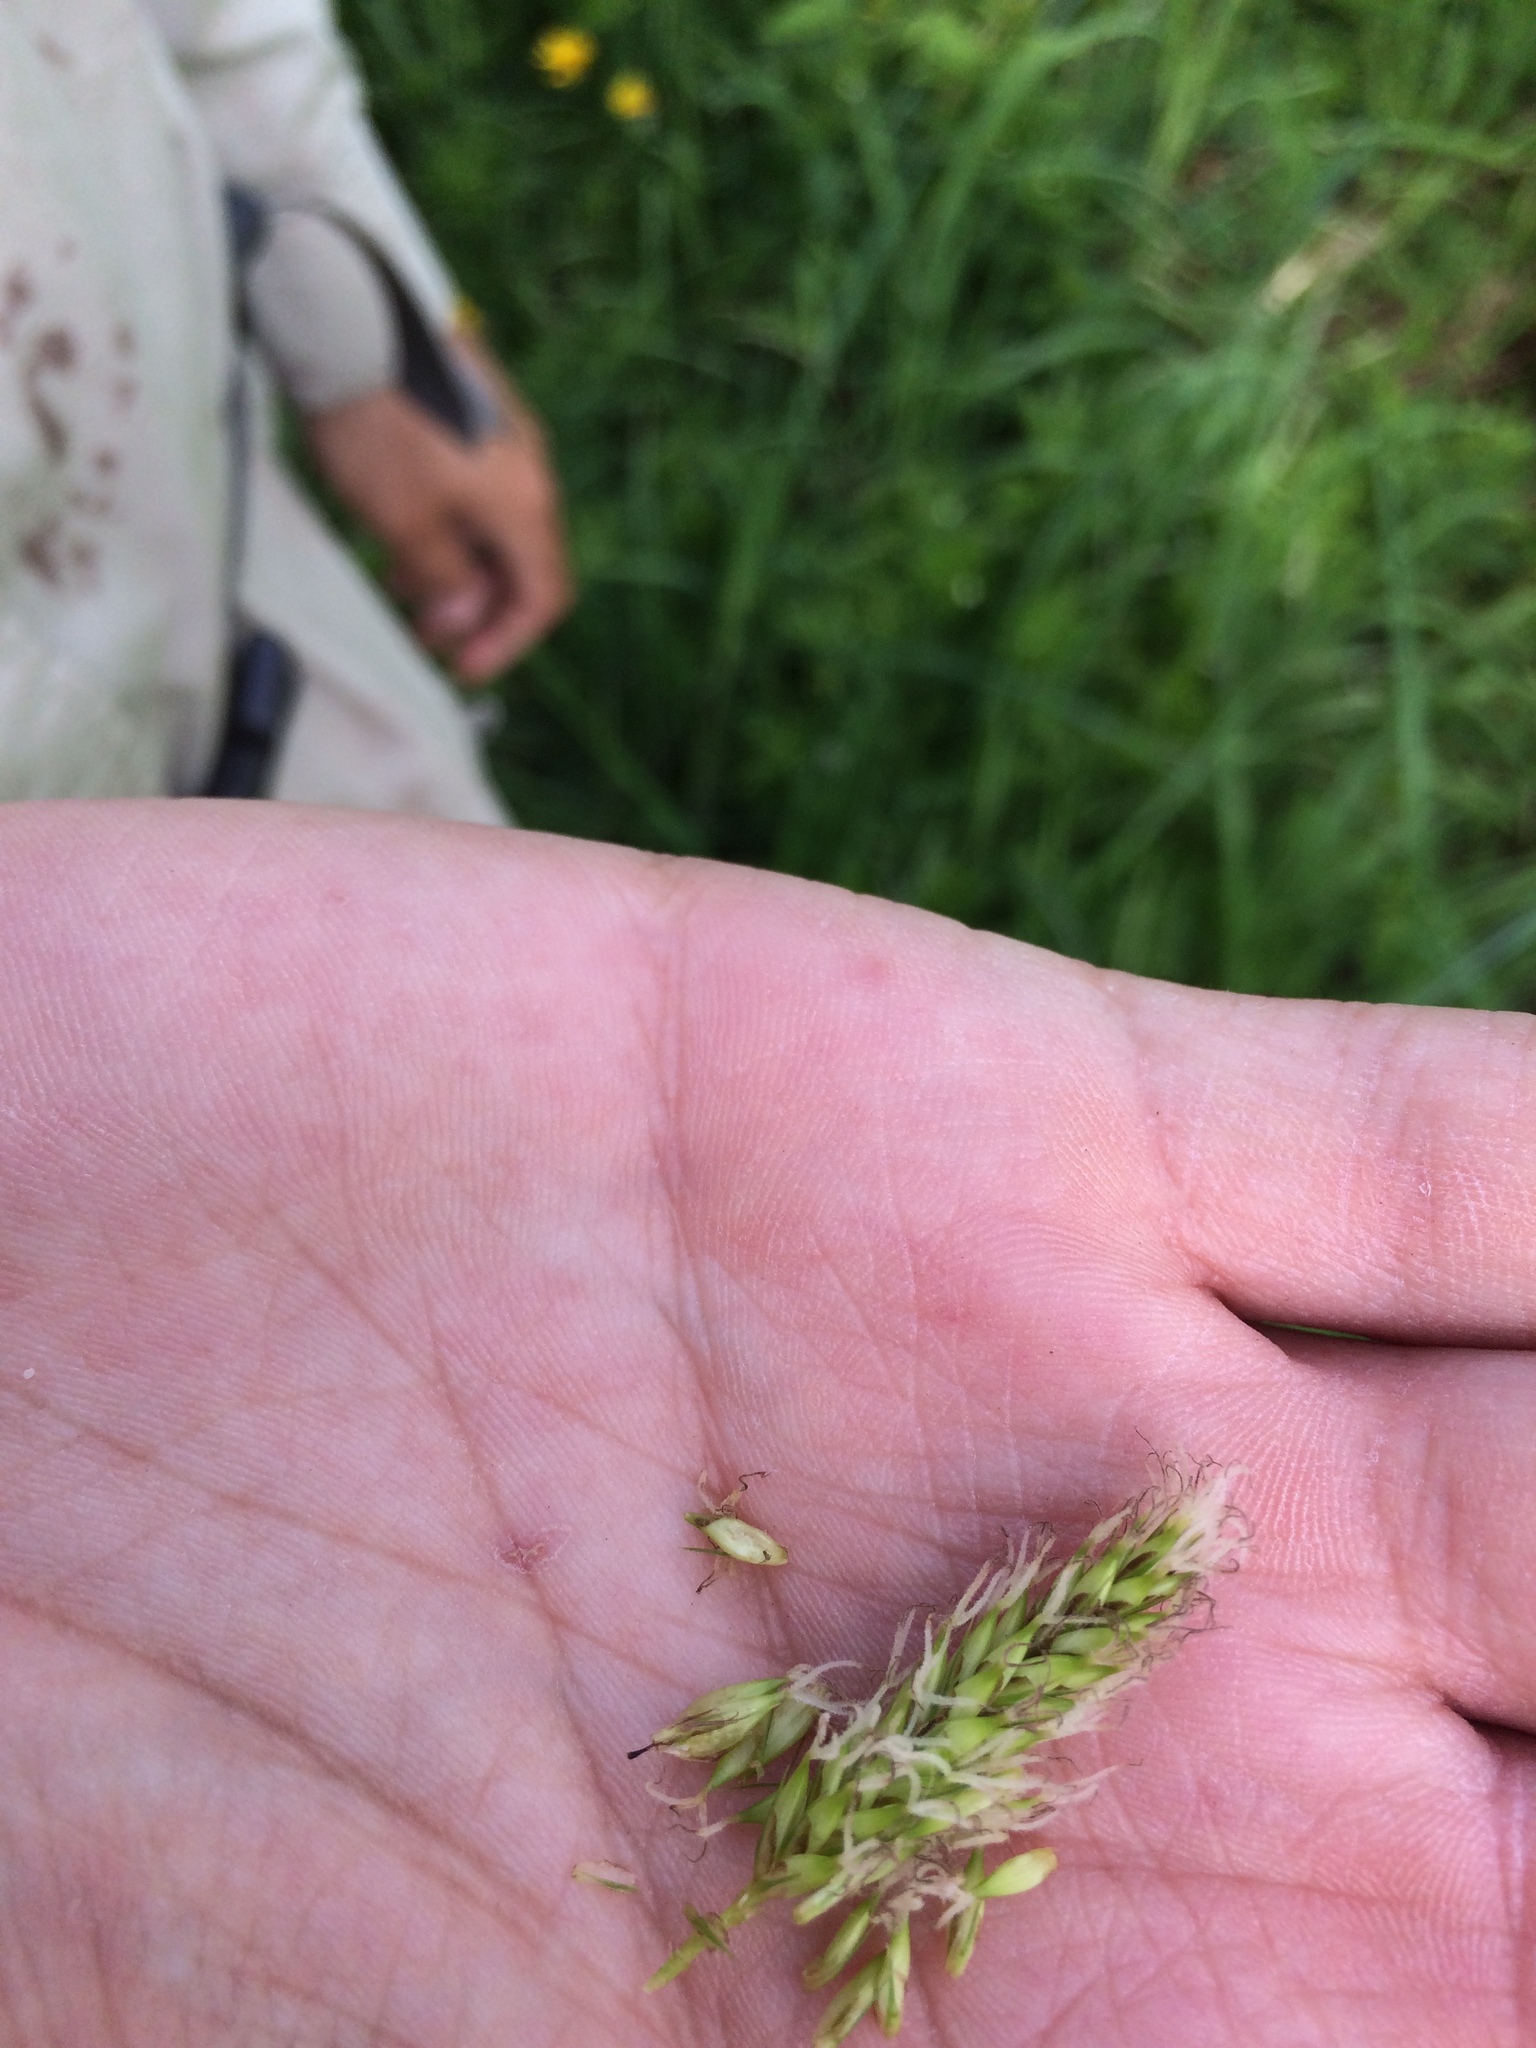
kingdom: Plantae
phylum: Tracheophyta
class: Liliopsida
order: Poales
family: Cyperaceae
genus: Carex
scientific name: Carex lacustris
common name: Common lake sedge
